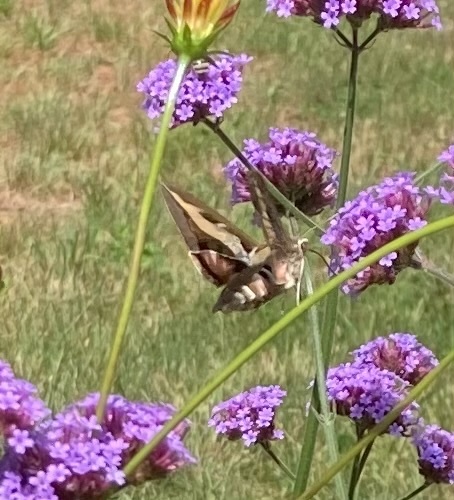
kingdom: Animalia
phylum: Arthropoda
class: Insecta
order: Lepidoptera
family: Sphingidae
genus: Hyles
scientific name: Hyles gallii
